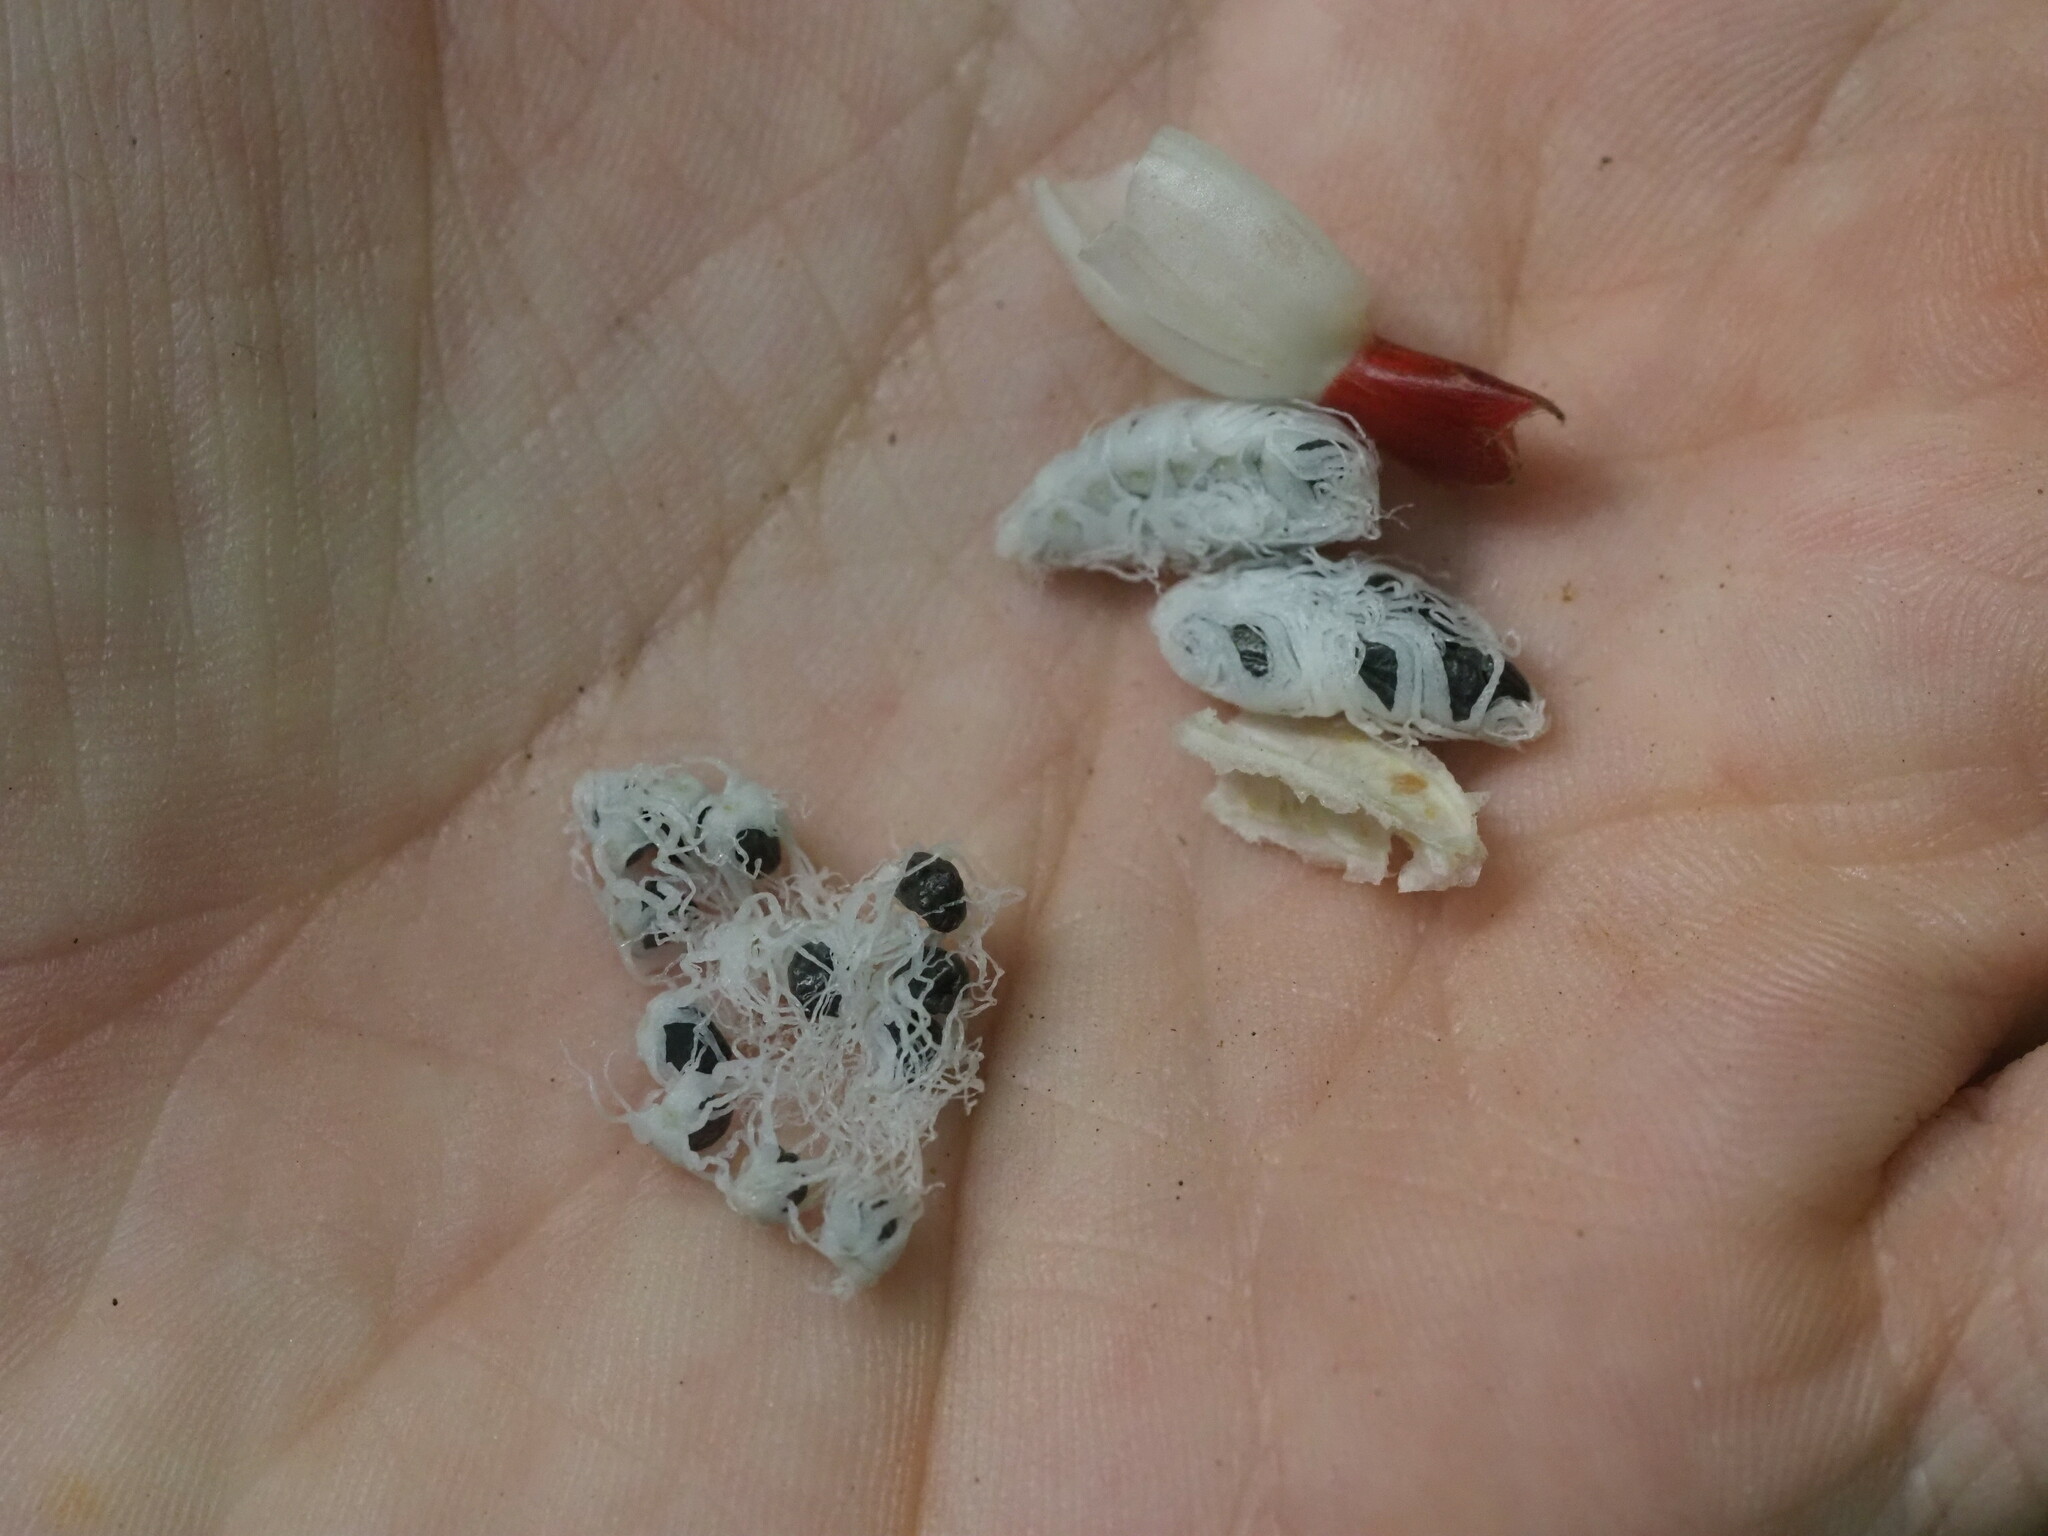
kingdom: Plantae
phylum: Tracheophyta
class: Liliopsida
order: Zingiberales
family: Costaceae
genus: Costus
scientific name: Costus pulverulentus
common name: Spiral ginger
